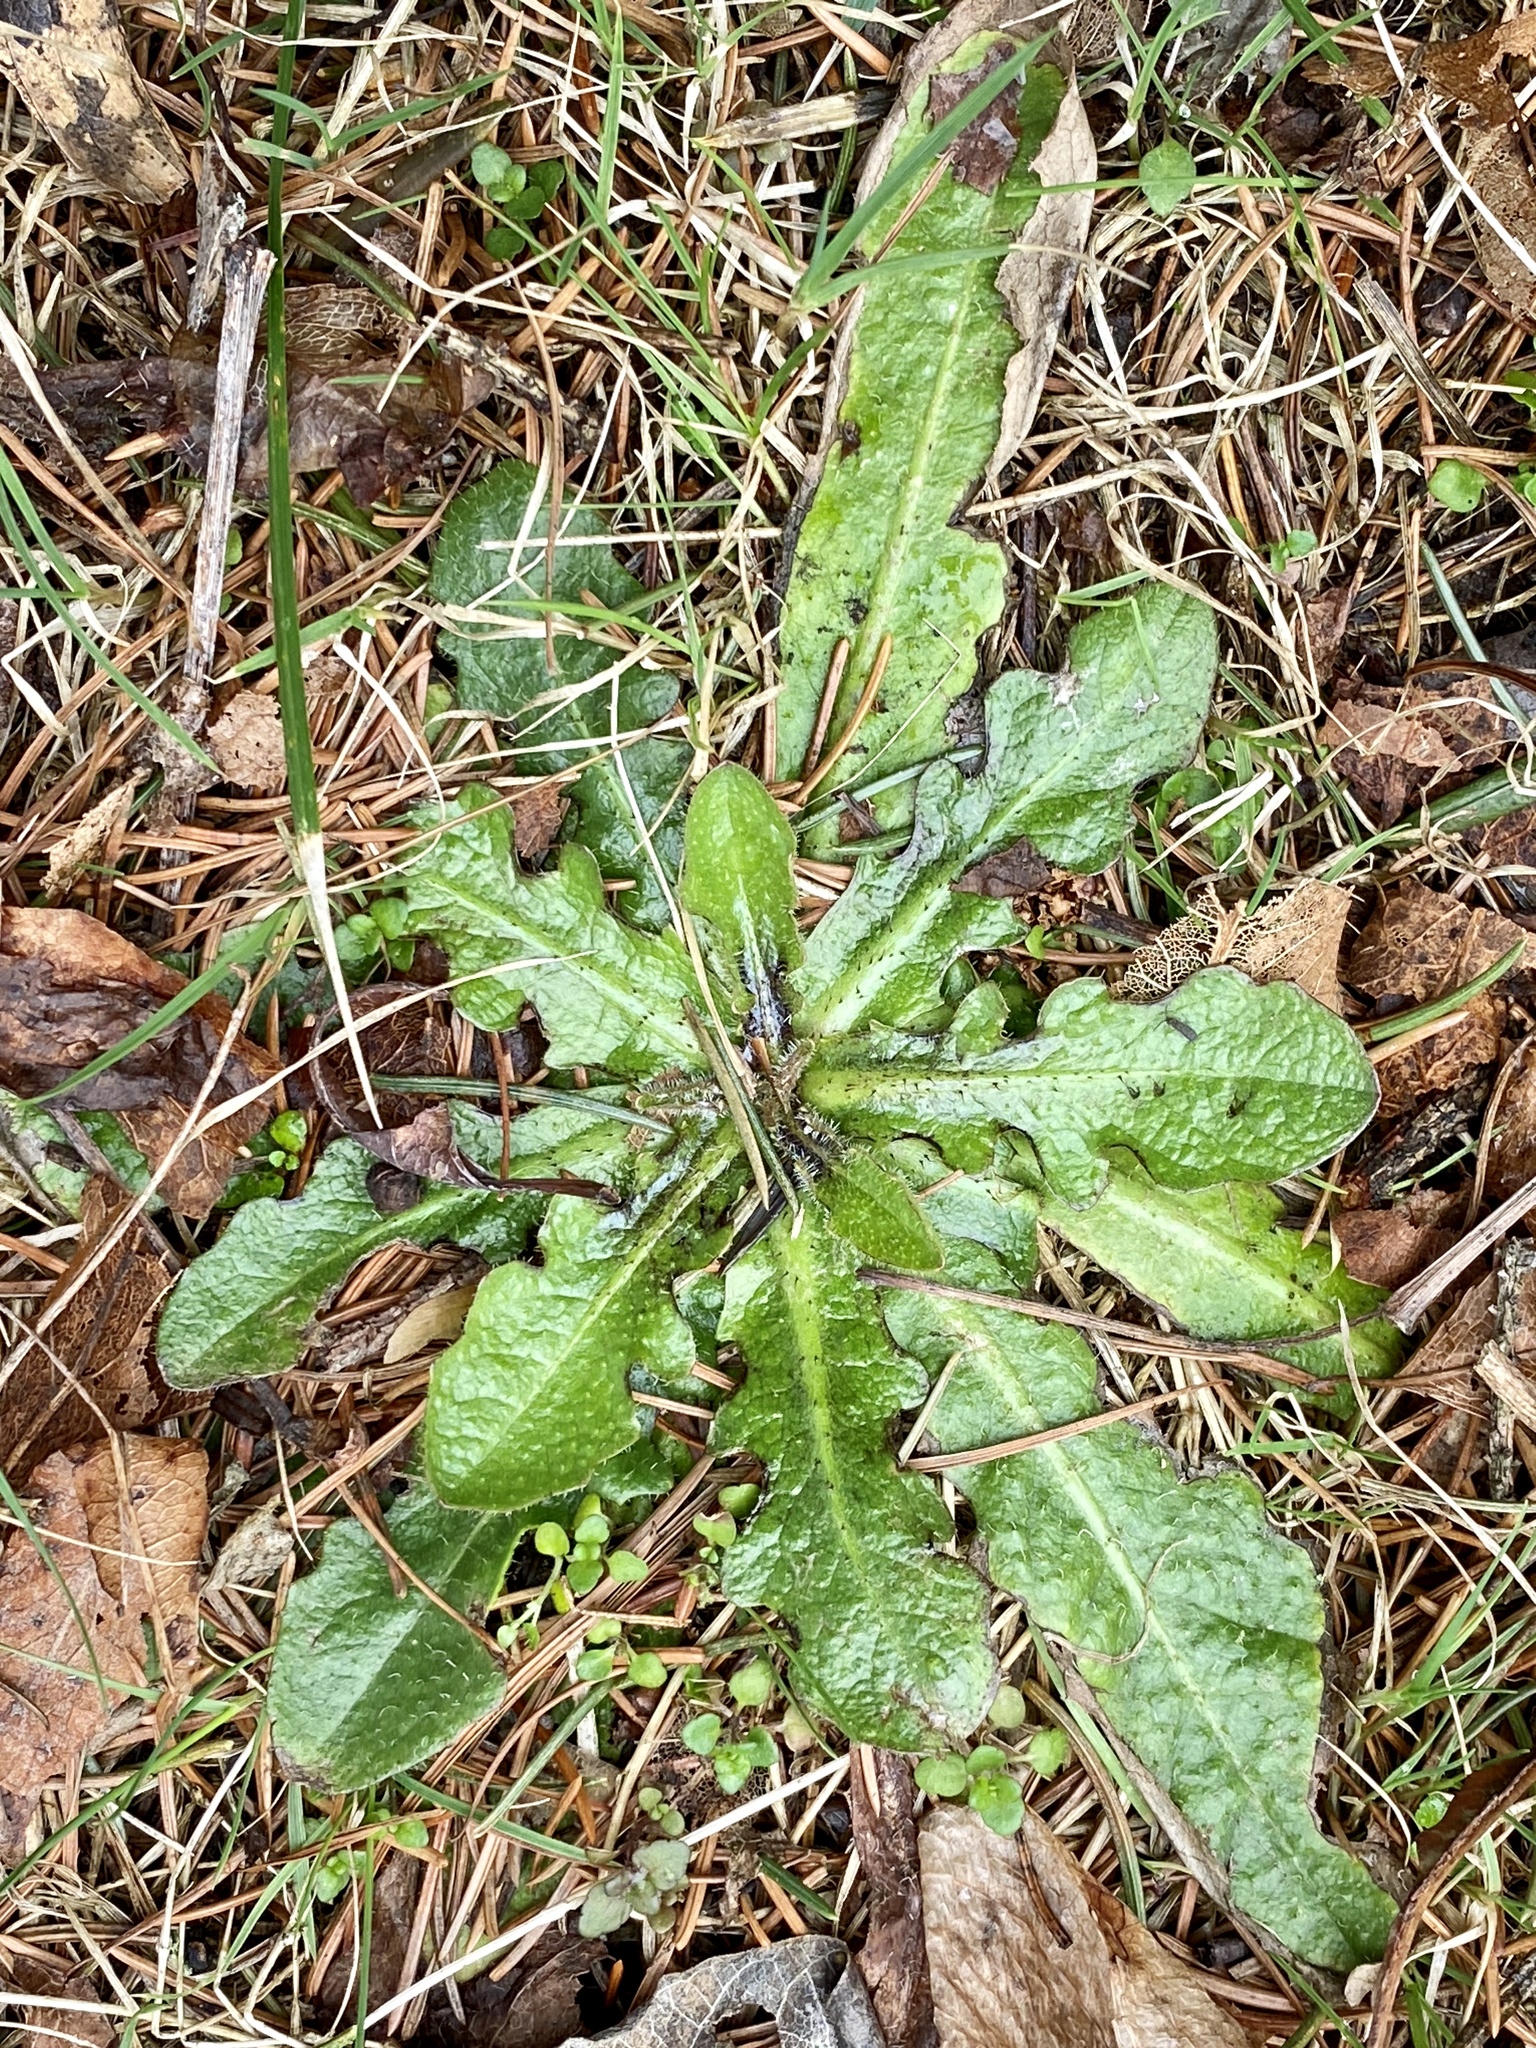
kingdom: Plantae
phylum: Tracheophyta
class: Magnoliopsida
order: Asterales
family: Asteraceae
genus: Hypochaeris
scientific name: Hypochaeris radicata
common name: Flatweed
